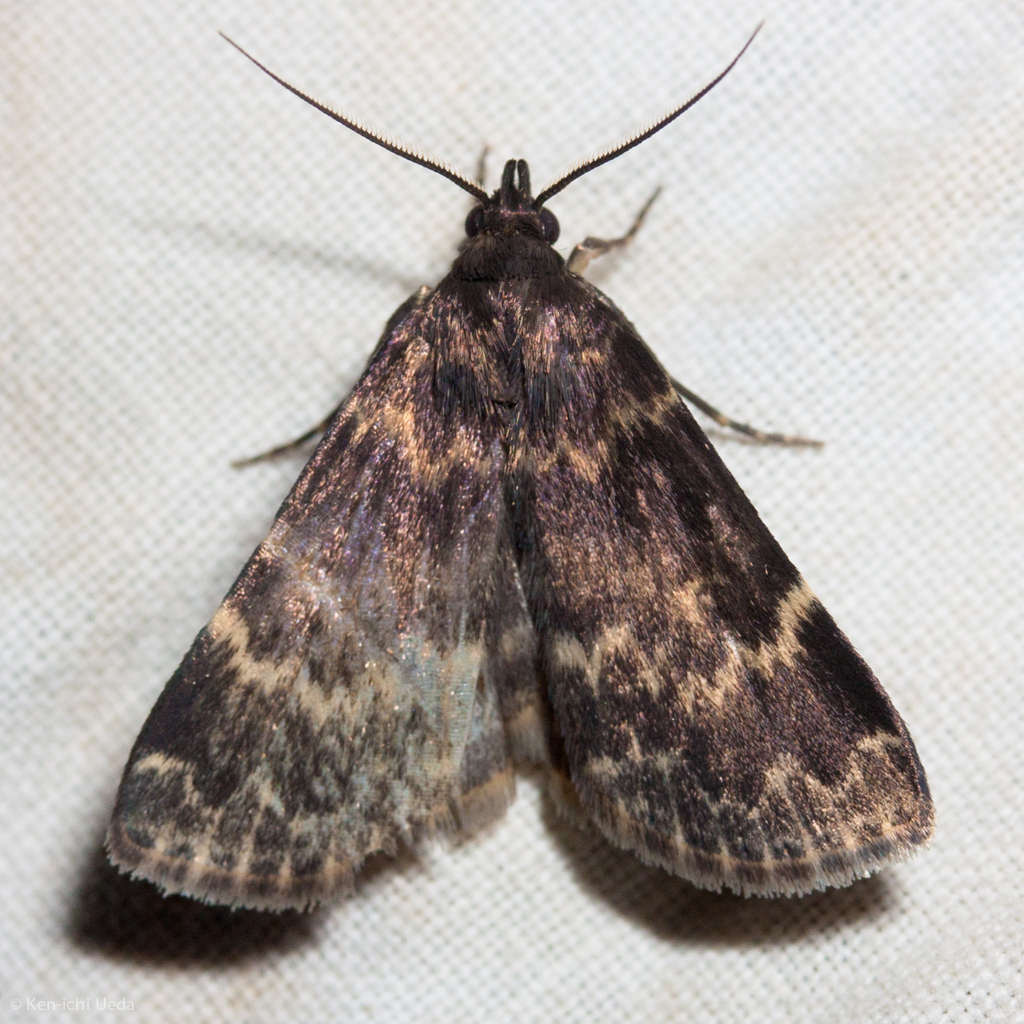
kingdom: Animalia
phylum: Arthropoda
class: Insecta
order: Lepidoptera
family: Erebidae
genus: Idia
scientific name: Idia lubricalis
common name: Twin-striped tabby
